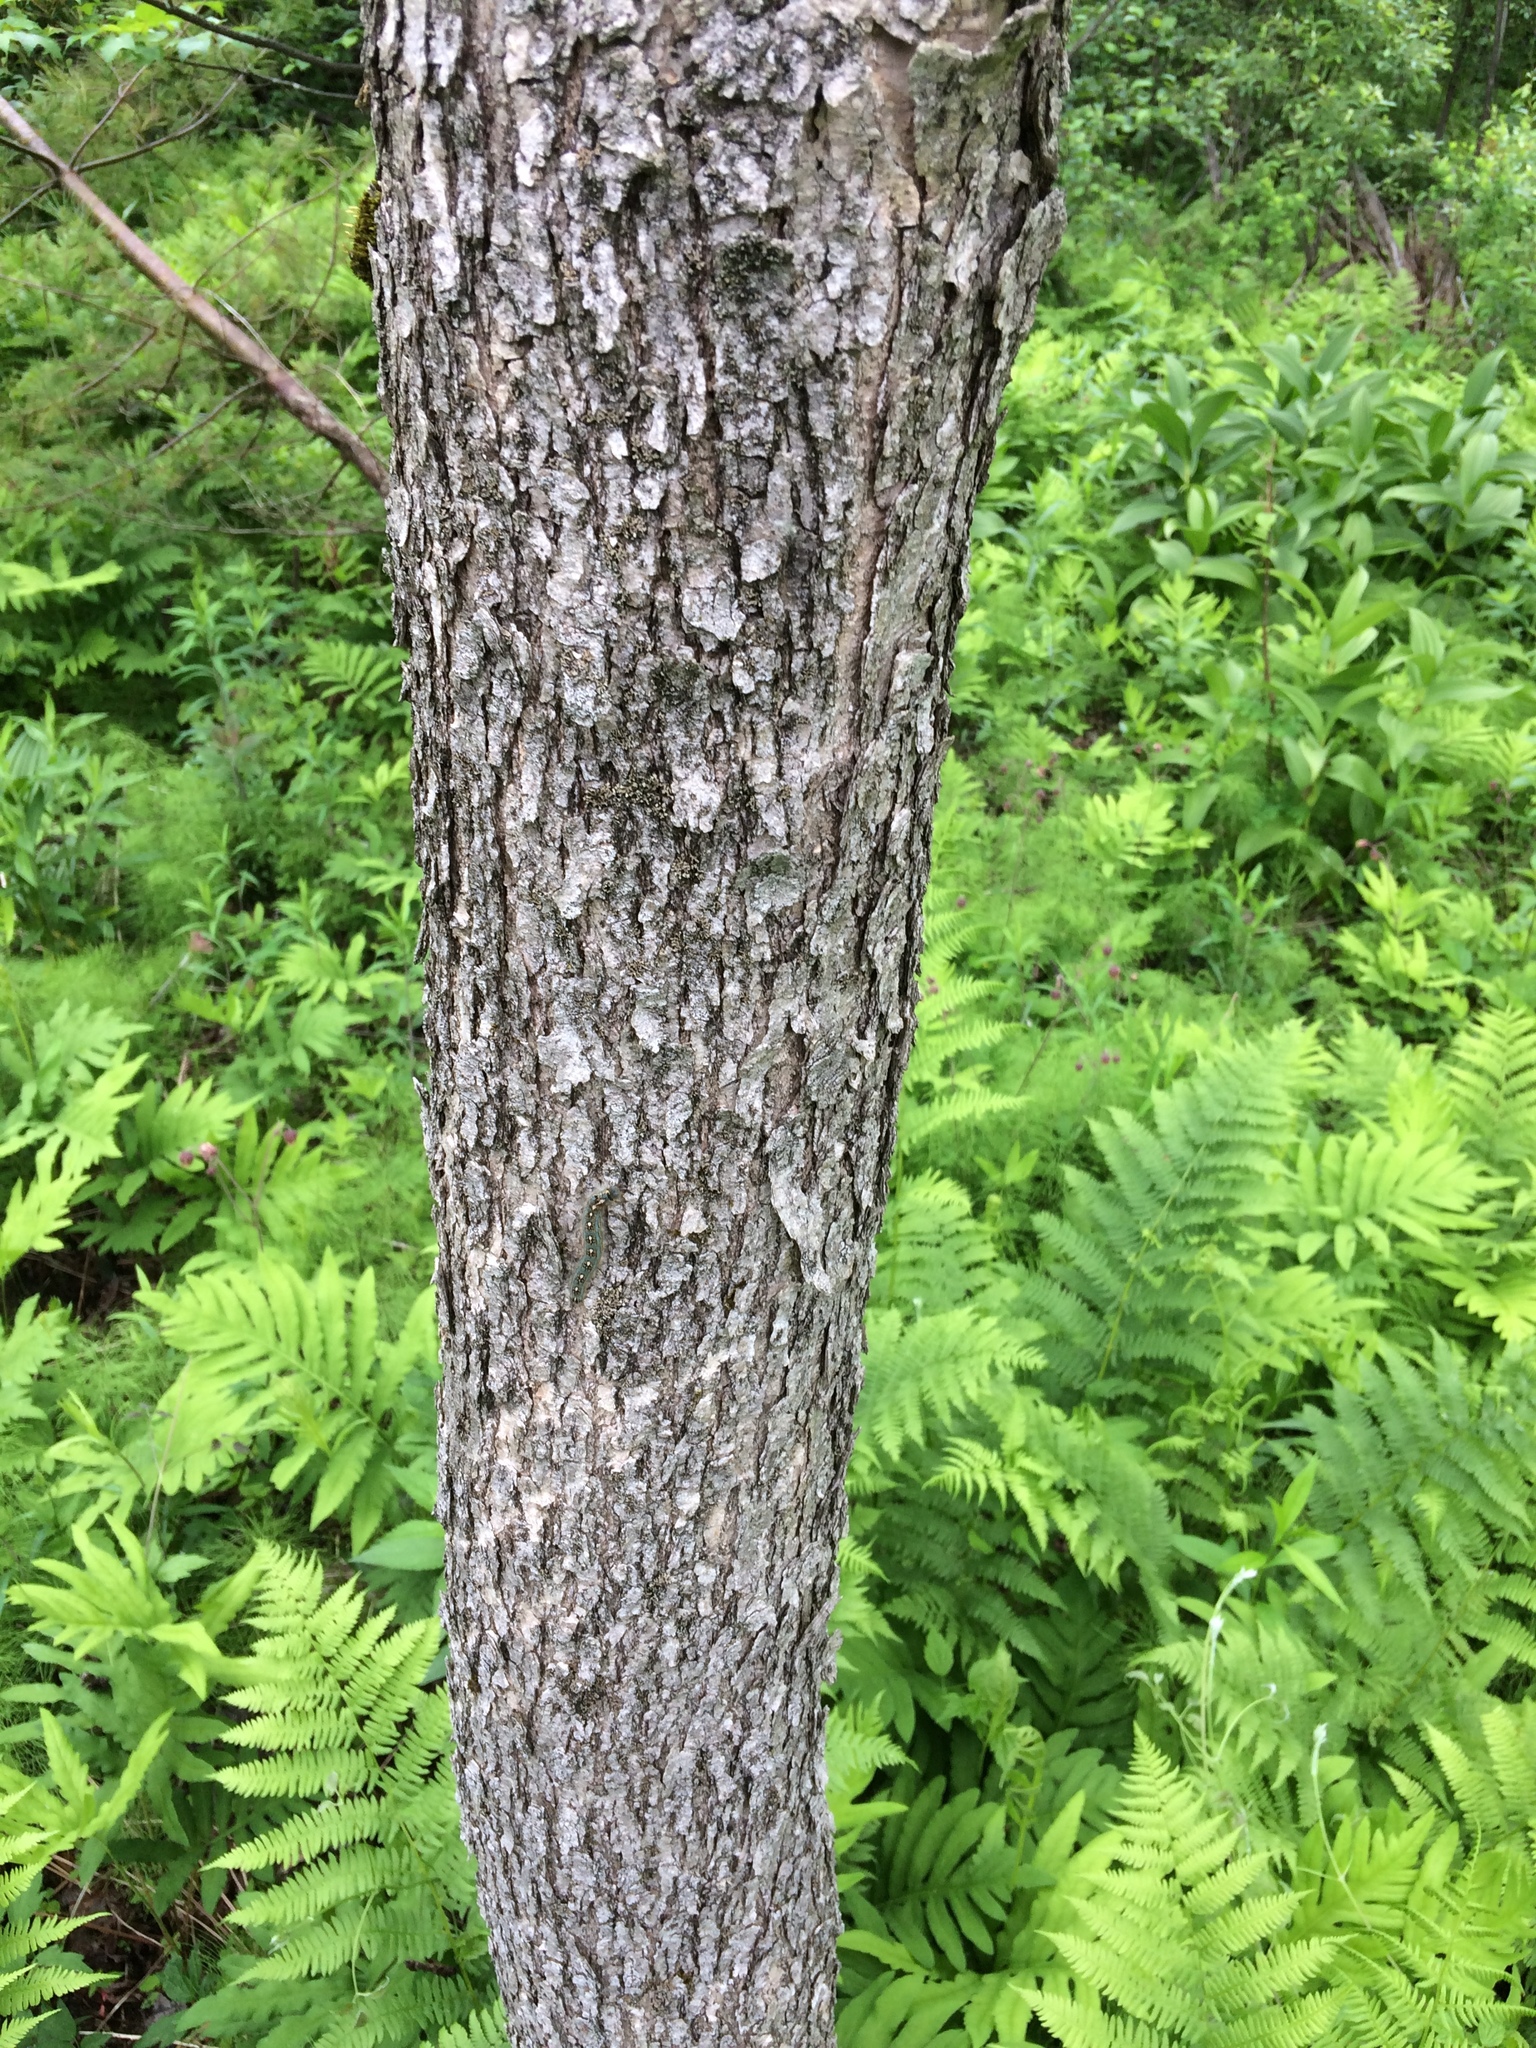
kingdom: Plantae
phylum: Tracheophyta
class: Magnoliopsida
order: Lamiales
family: Oleaceae
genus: Fraxinus
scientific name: Fraxinus nigra
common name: Black ash
